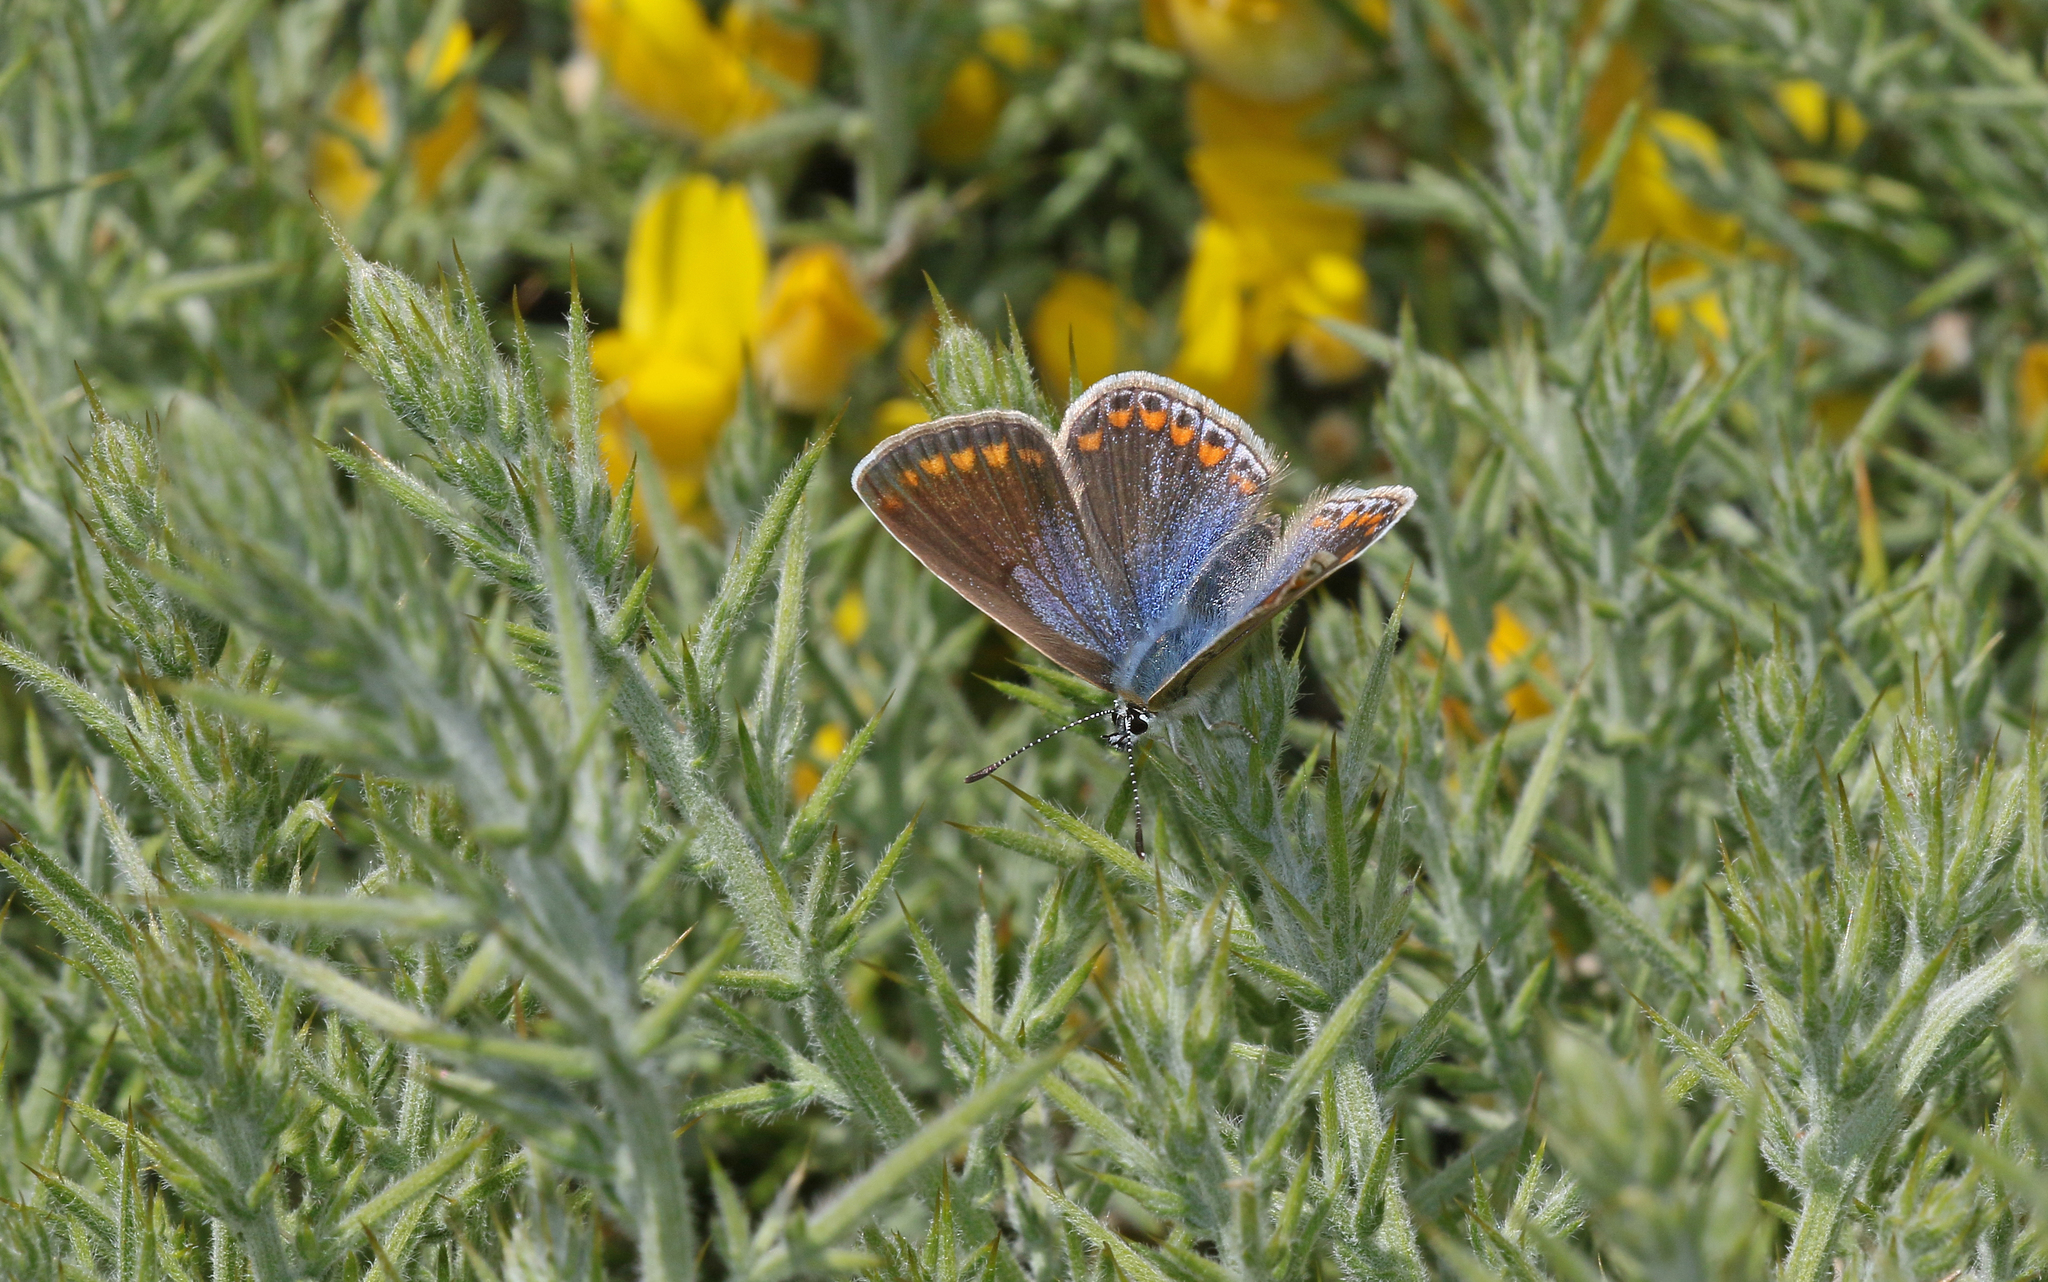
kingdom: Animalia
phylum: Arthropoda
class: Insecta
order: Lepidoptera
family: Lycaenidae
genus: Polyommatus
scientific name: Polyommatus celina
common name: Austaut's blue
